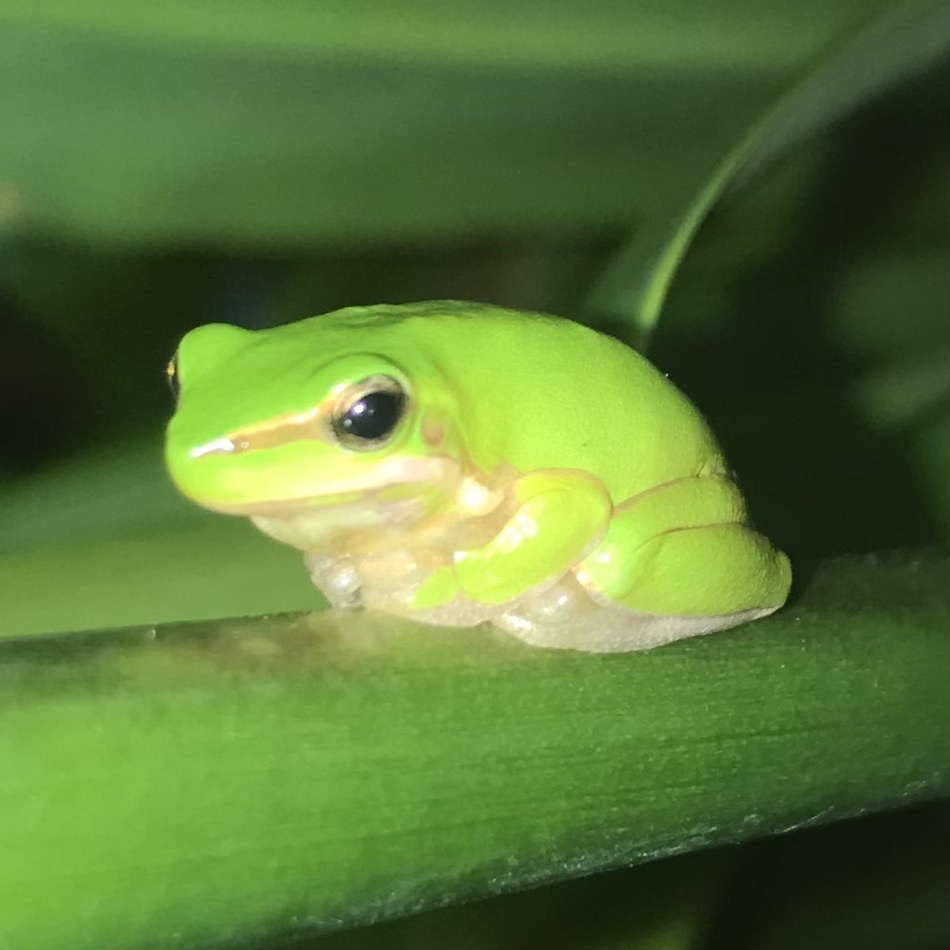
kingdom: Animalia
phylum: Chordata
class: Amphibia
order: Anura
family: Pelodryadidae
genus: Litoria
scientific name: Litoria fallax
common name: Eastern dwarf treefrog
